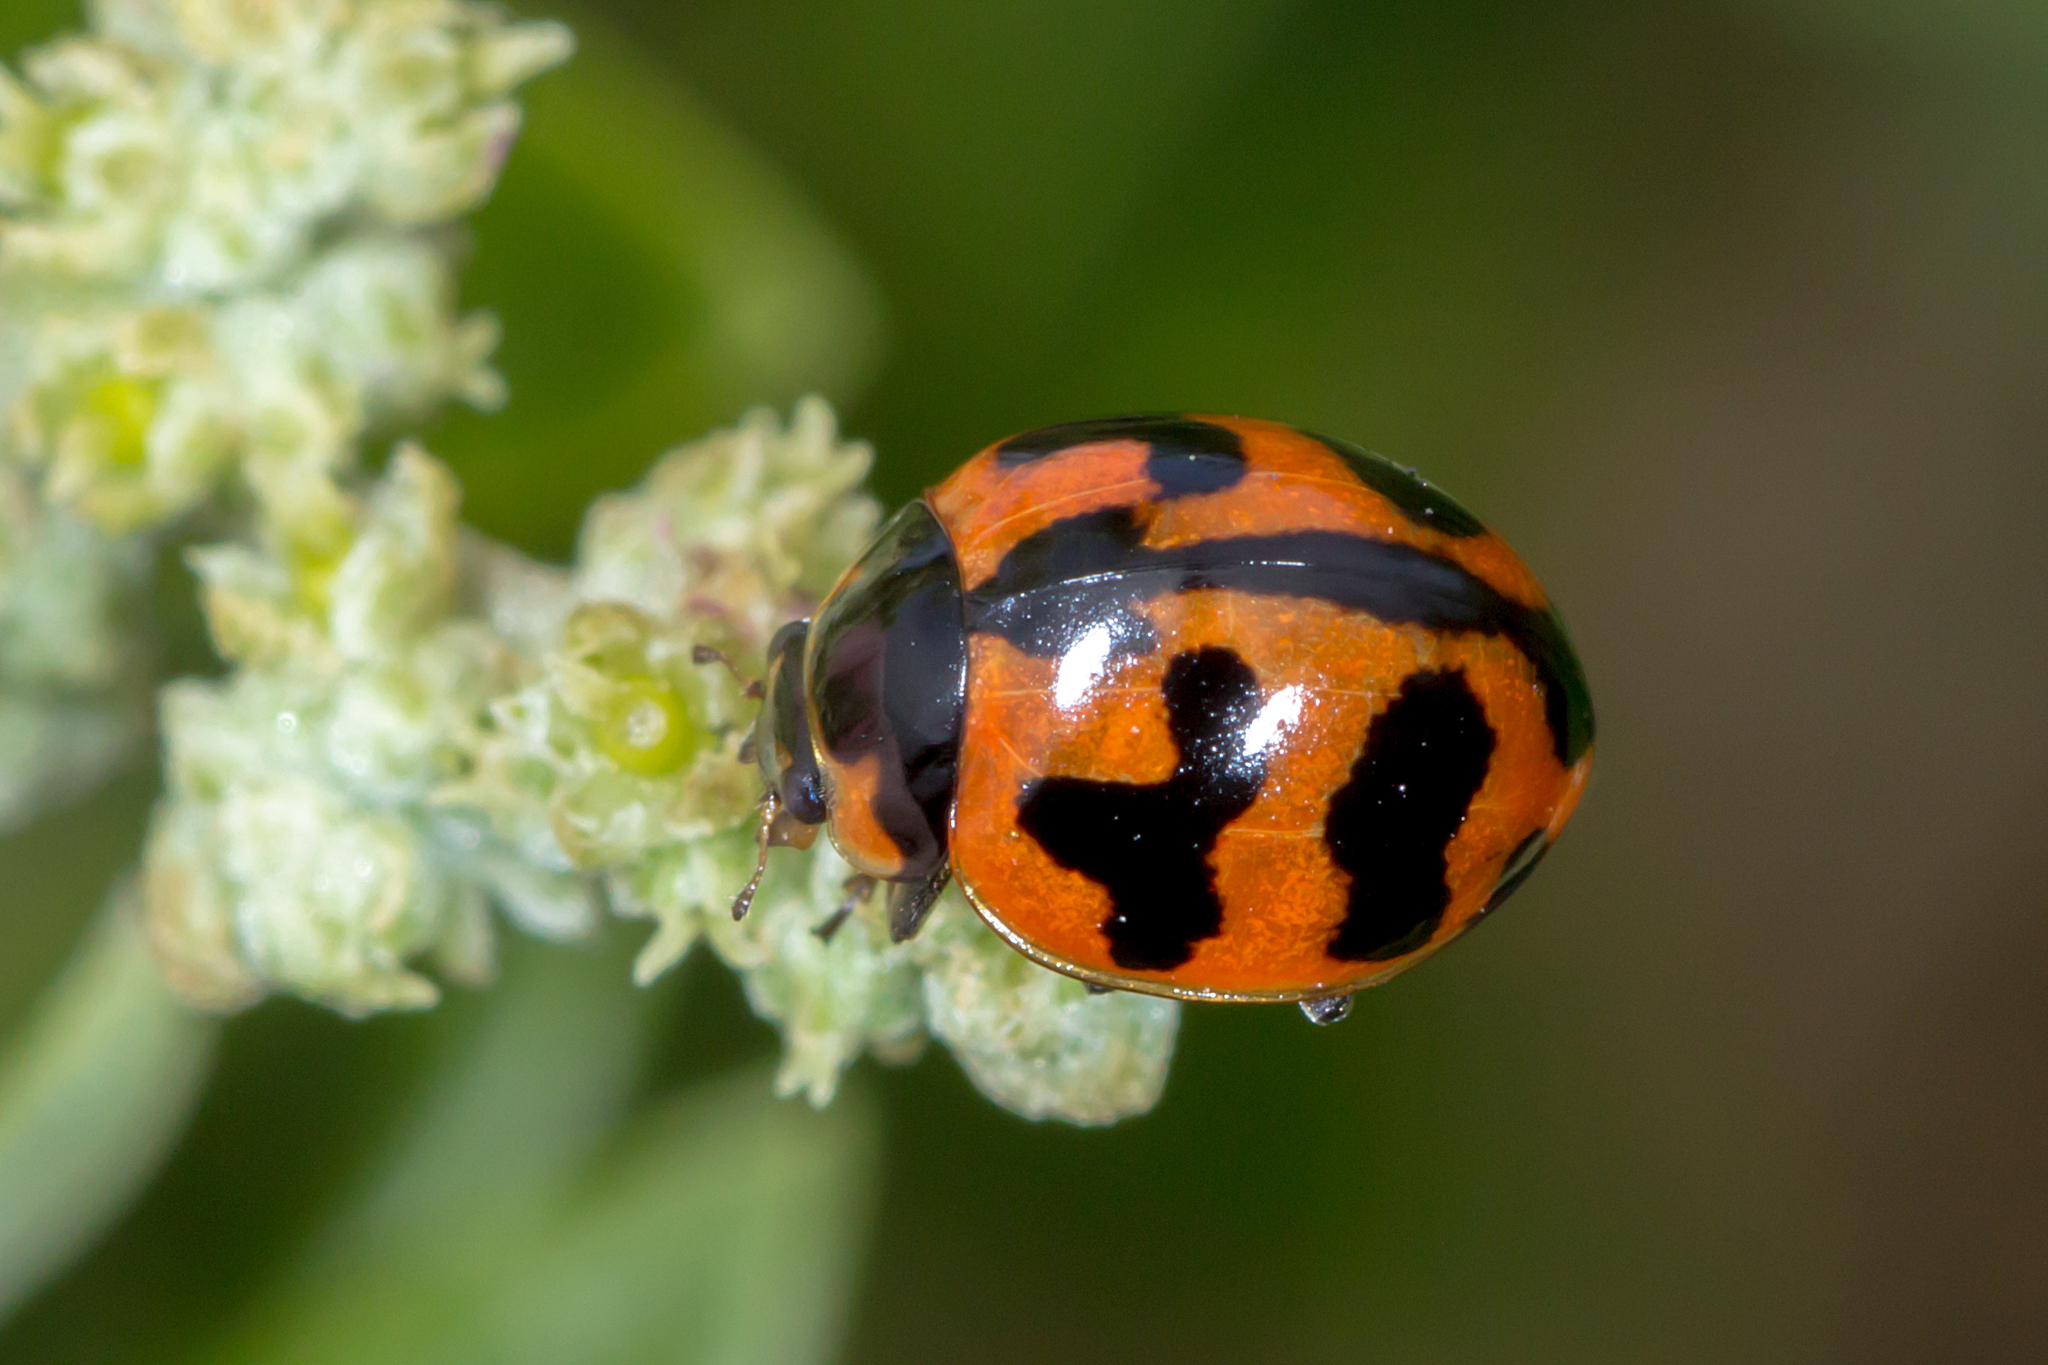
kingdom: Animalia
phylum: Arthropoda
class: Insecta
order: Coleoptera
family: Coccinellidae
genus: Coccinella
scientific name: Coccinella transversalis
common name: Transverse lady beetle
